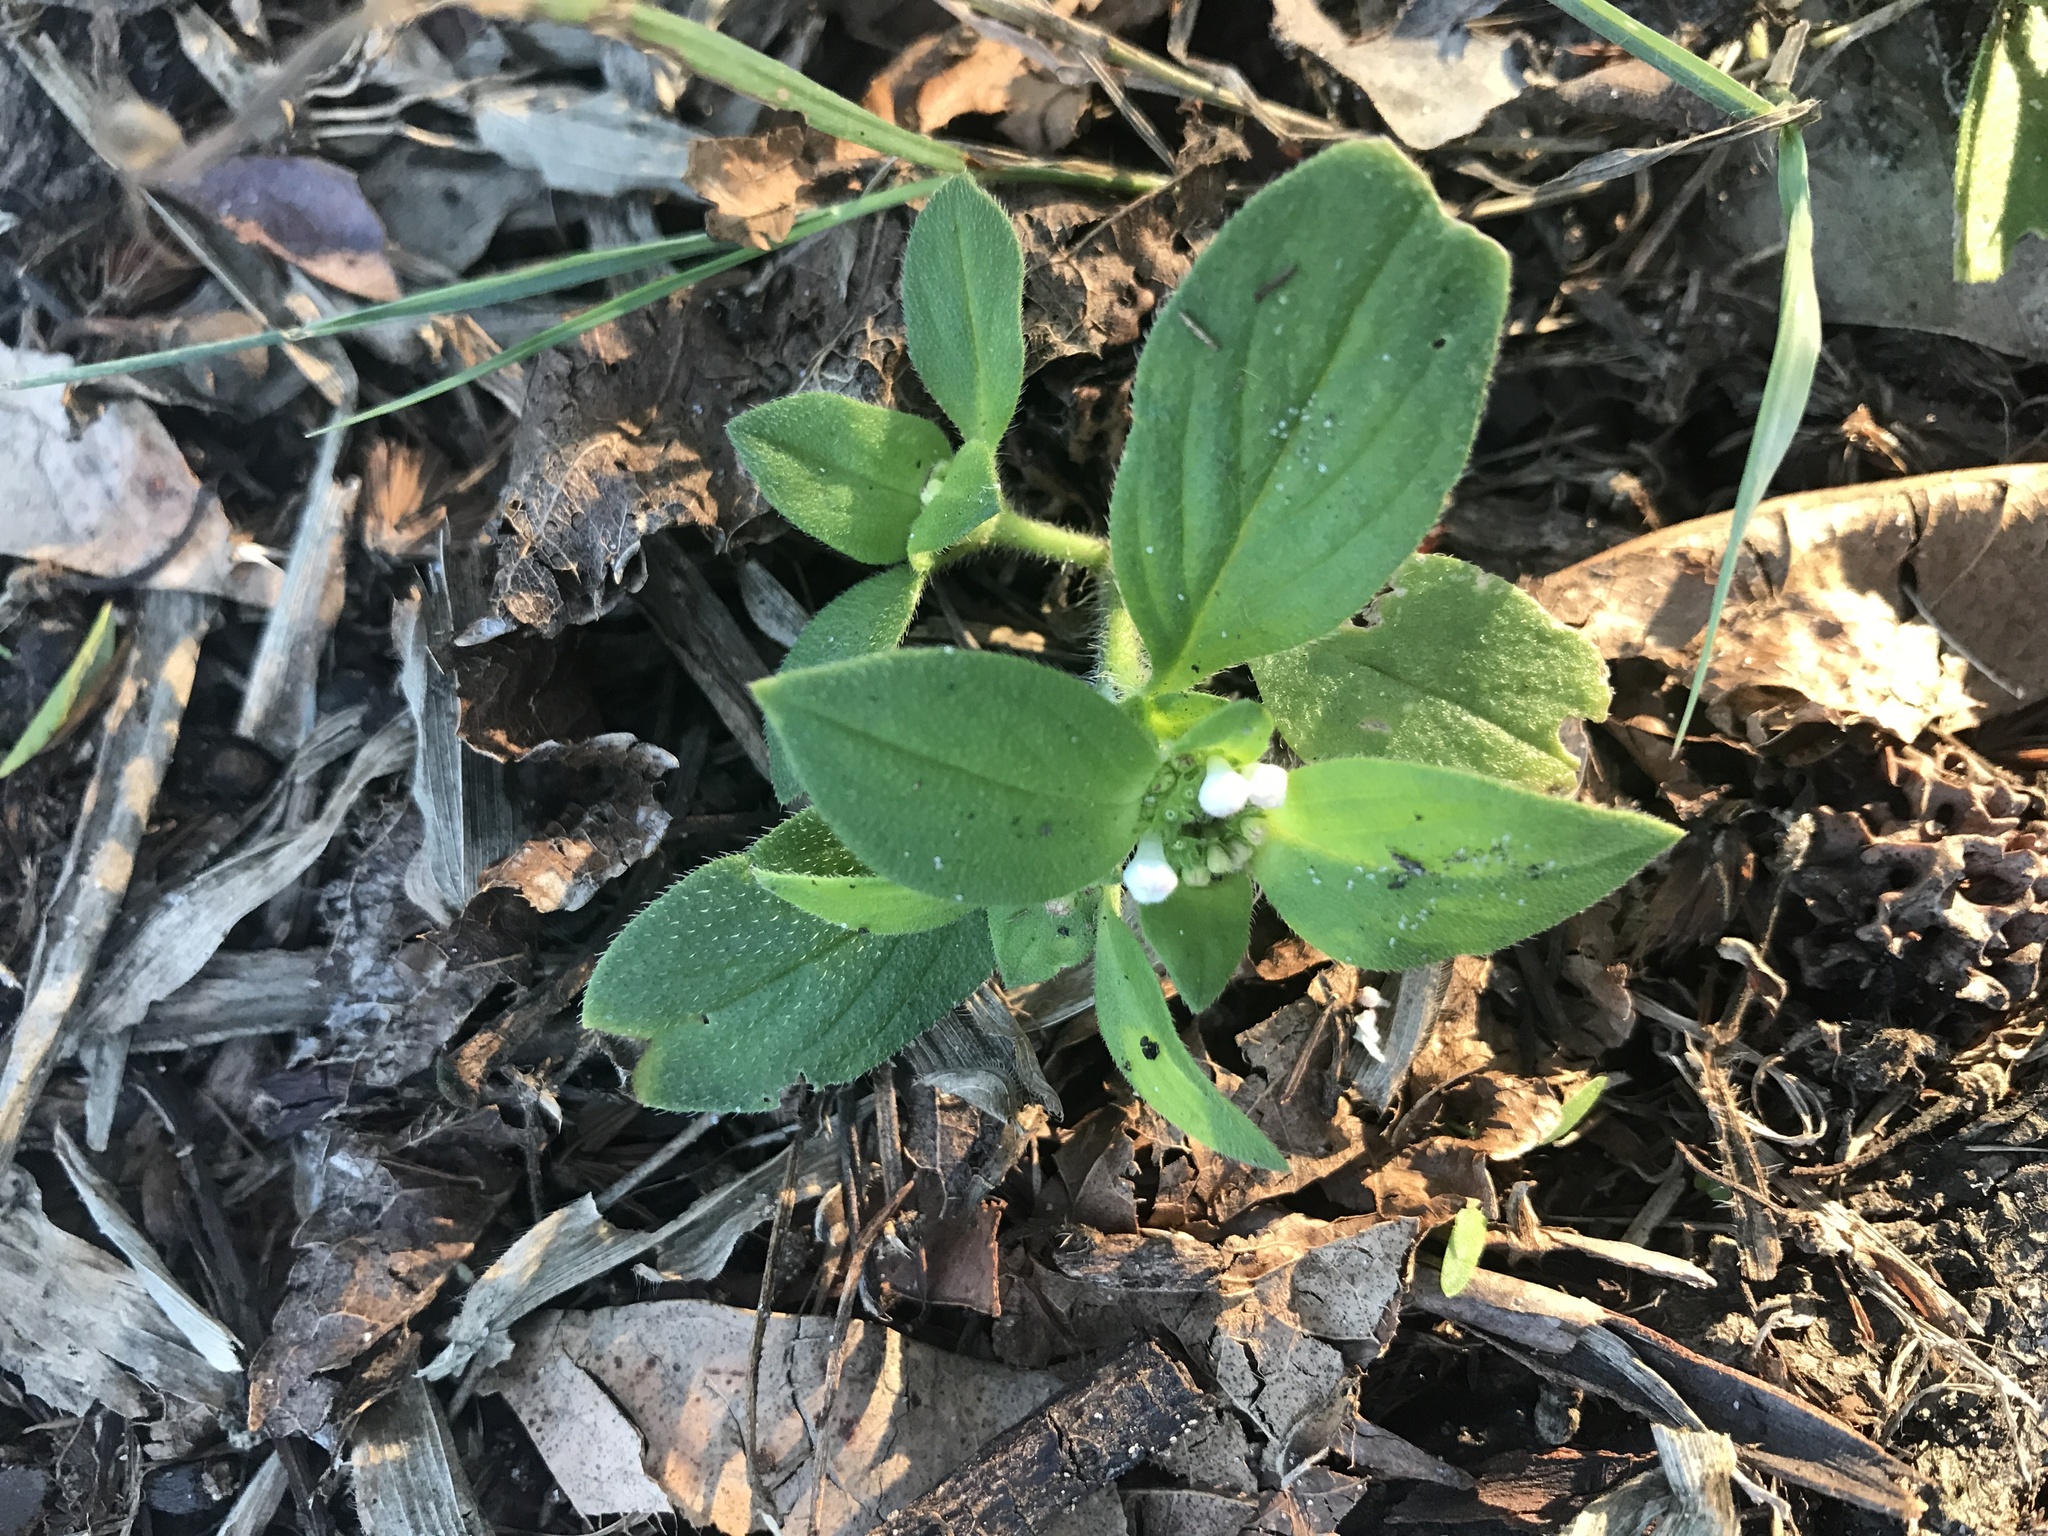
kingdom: Plantae
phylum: Tracheophyta
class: Magnoliopsida
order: Gentianales
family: Rubiaceae
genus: Richardia
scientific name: Richardia brasiliensis
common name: Tropical mexican clover
